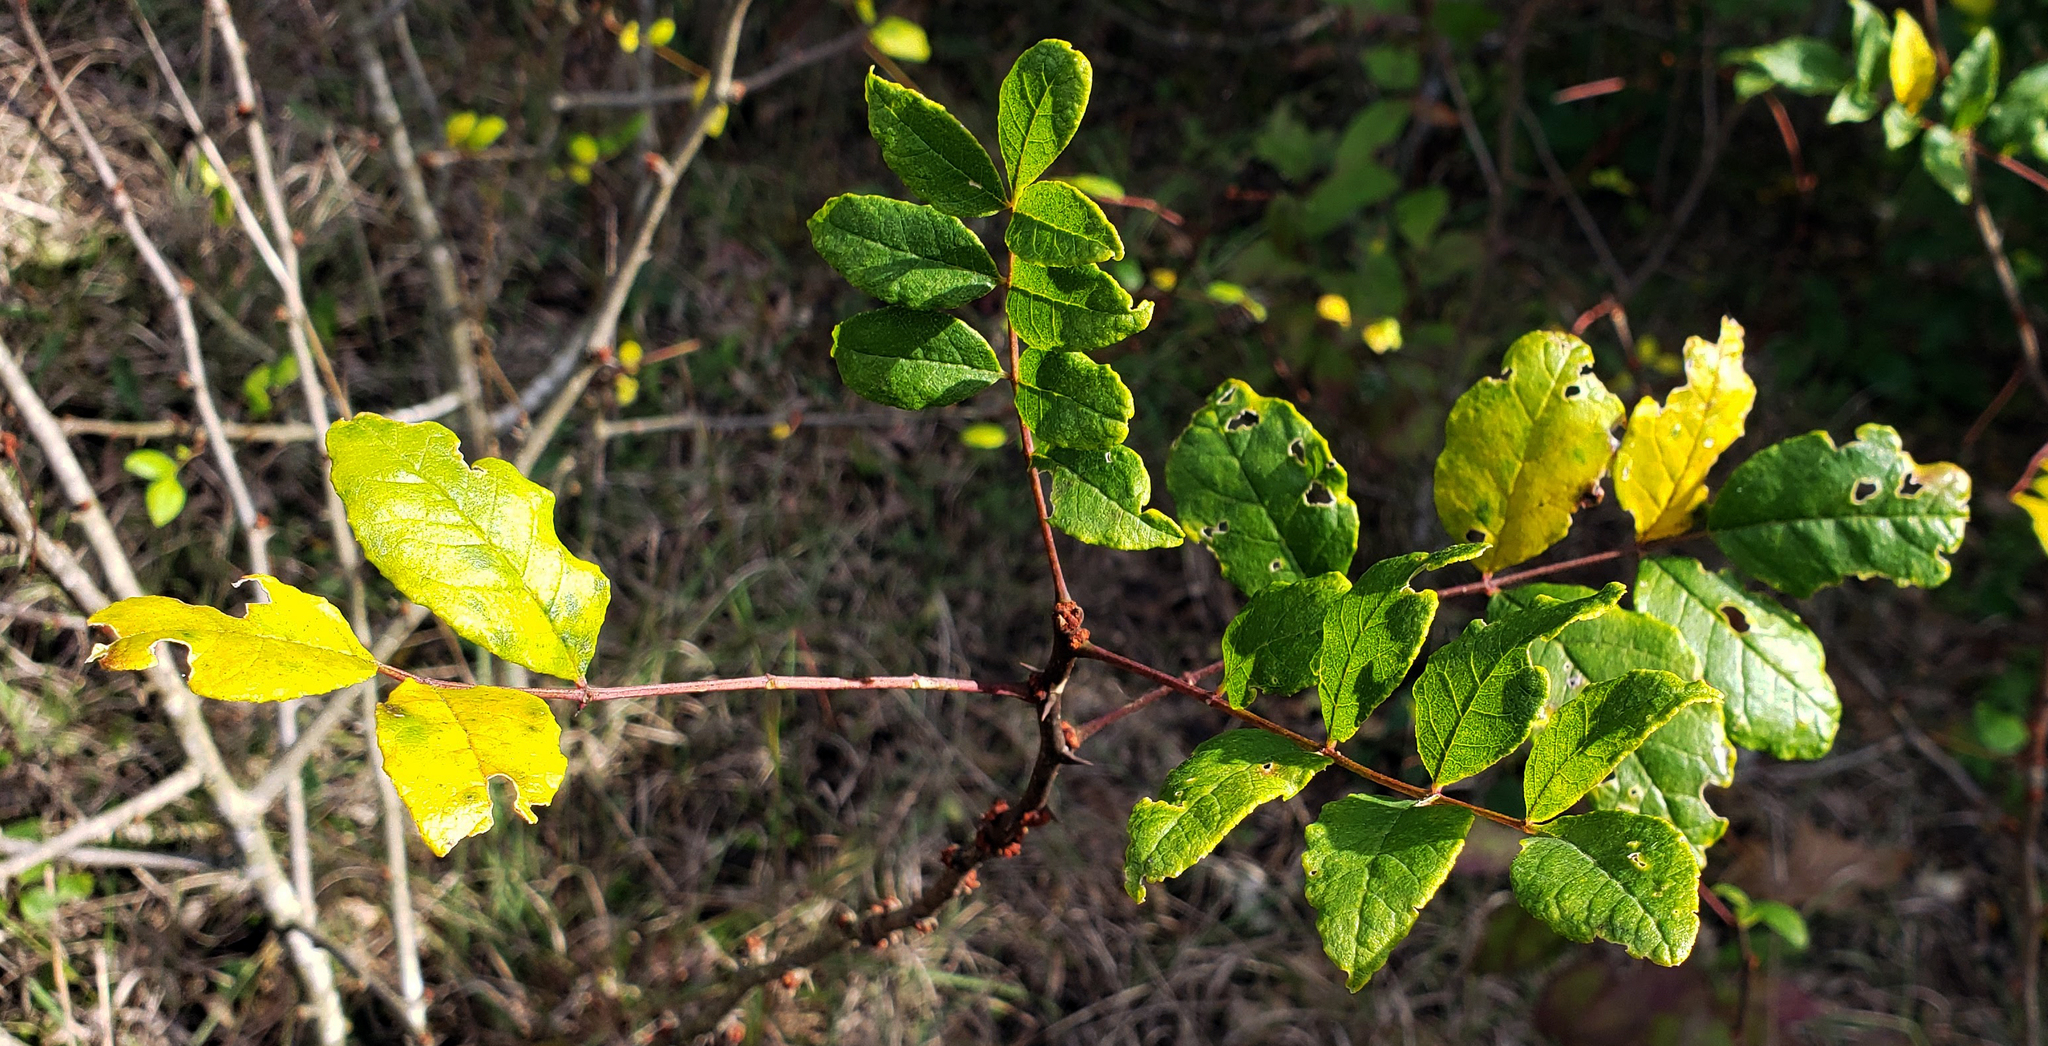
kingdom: Plantae
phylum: Tracheophyta
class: Magnoliopsida
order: Sapindales
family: Rutaceae
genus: Zanthoxylum
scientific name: Zanthoxylum americanum
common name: Northern prickly-ash
